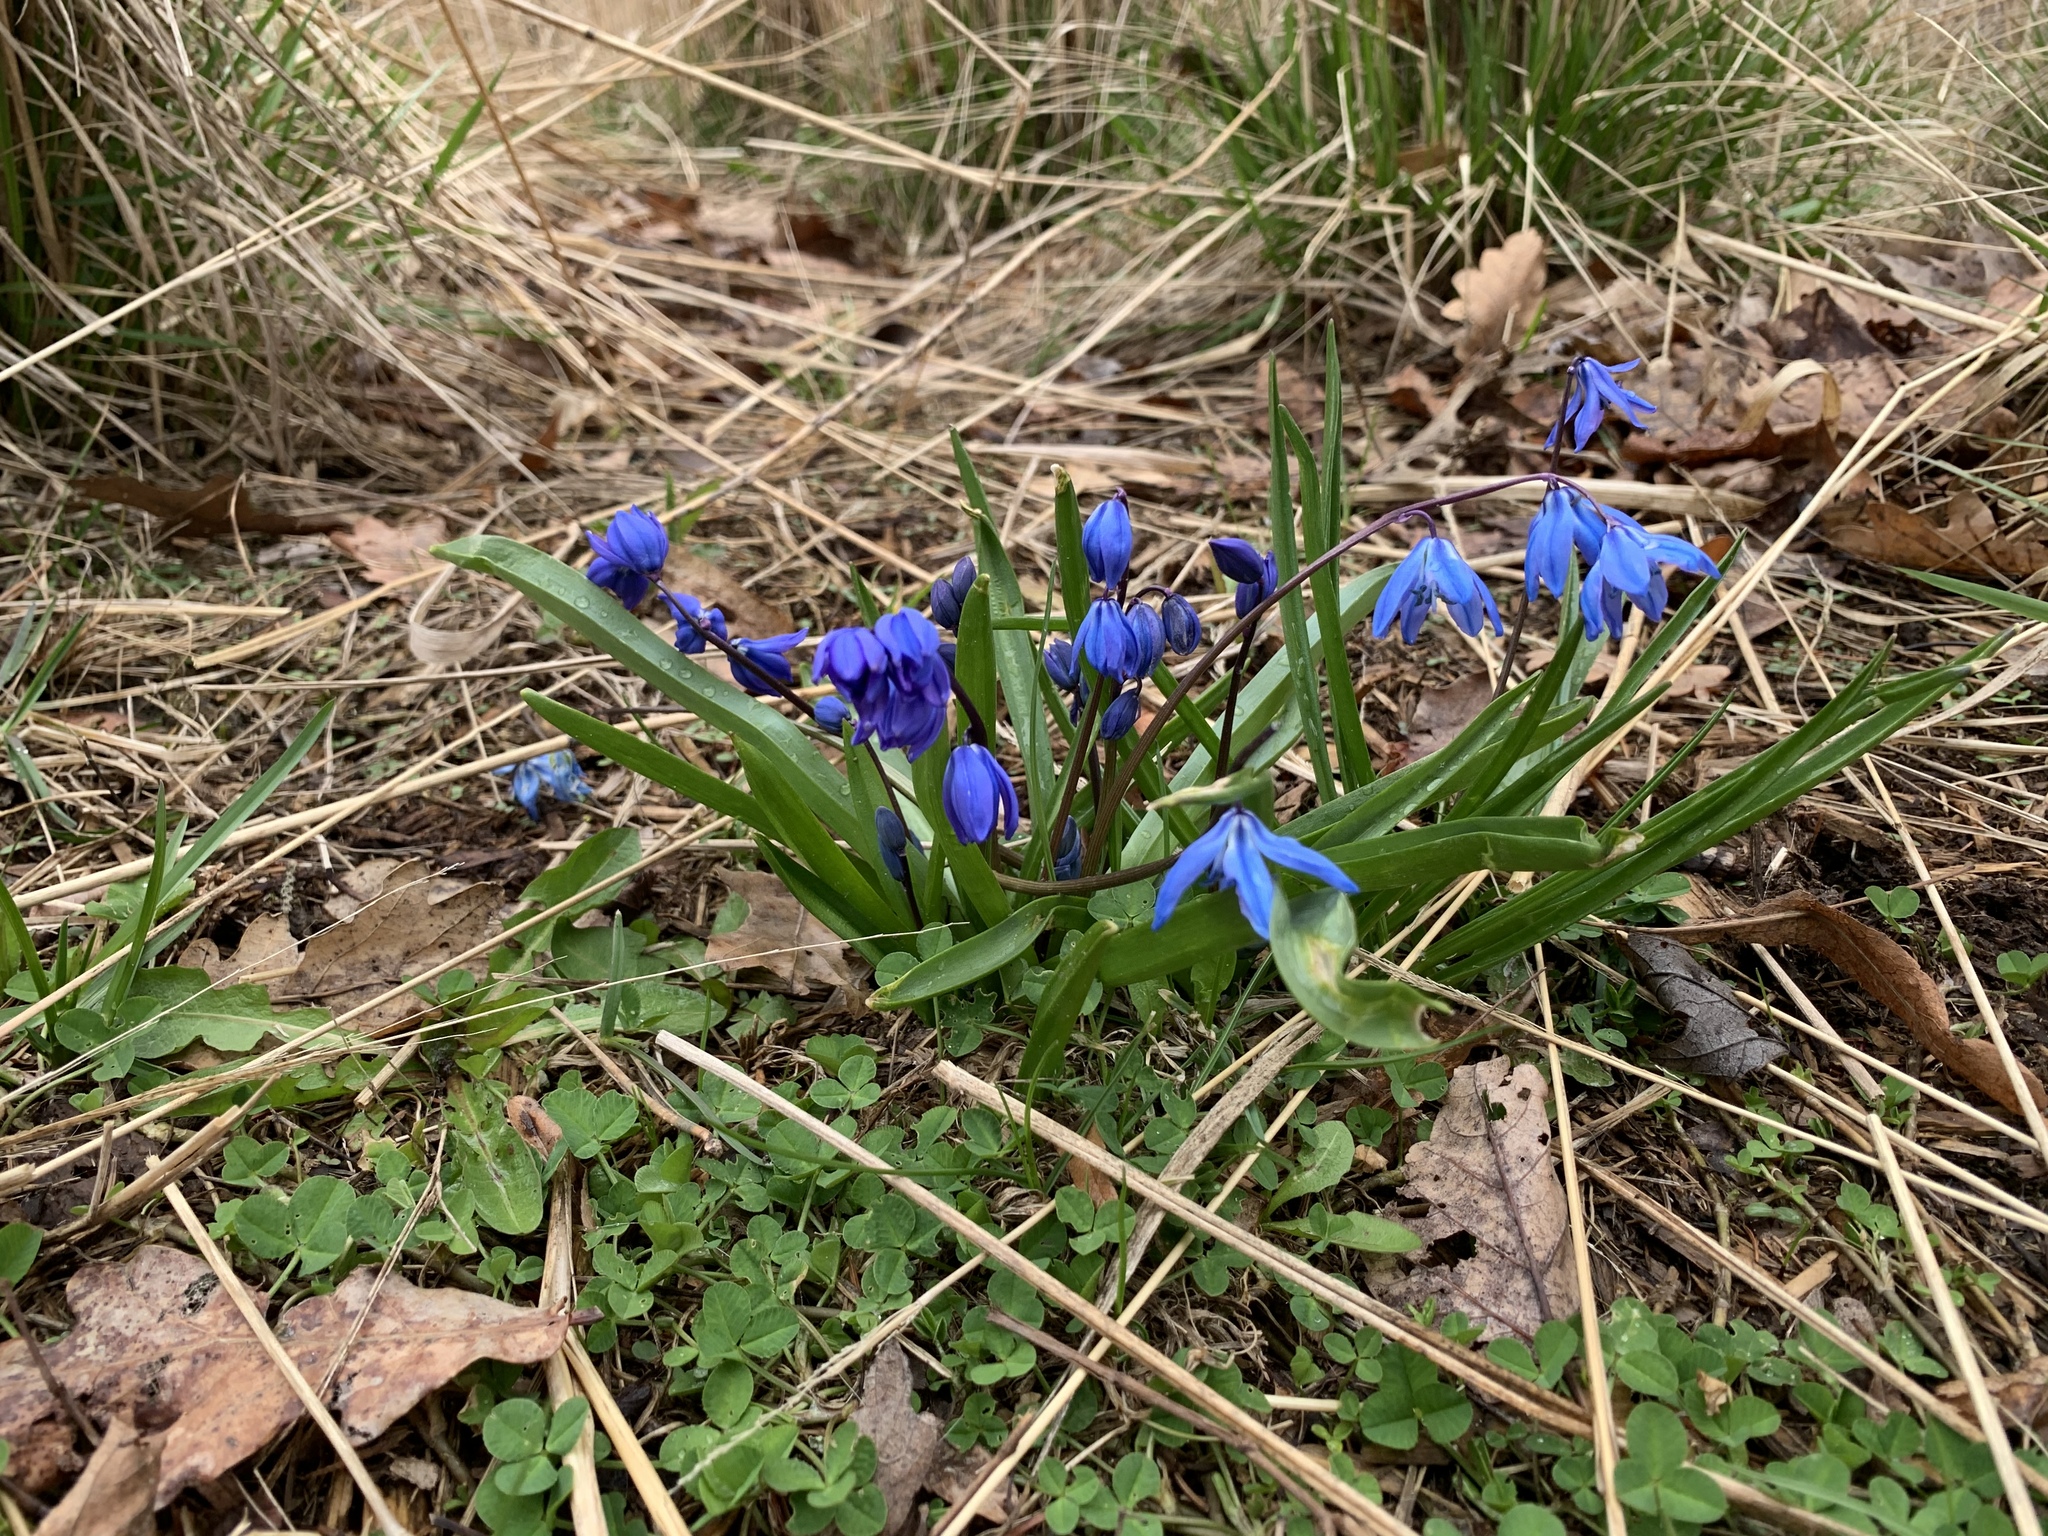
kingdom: Plantae
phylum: Tracheophyta
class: Liliopsida
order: Asparagales
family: Asparagaceae
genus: Scilla
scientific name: Scilla siberica
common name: Siberian squill
